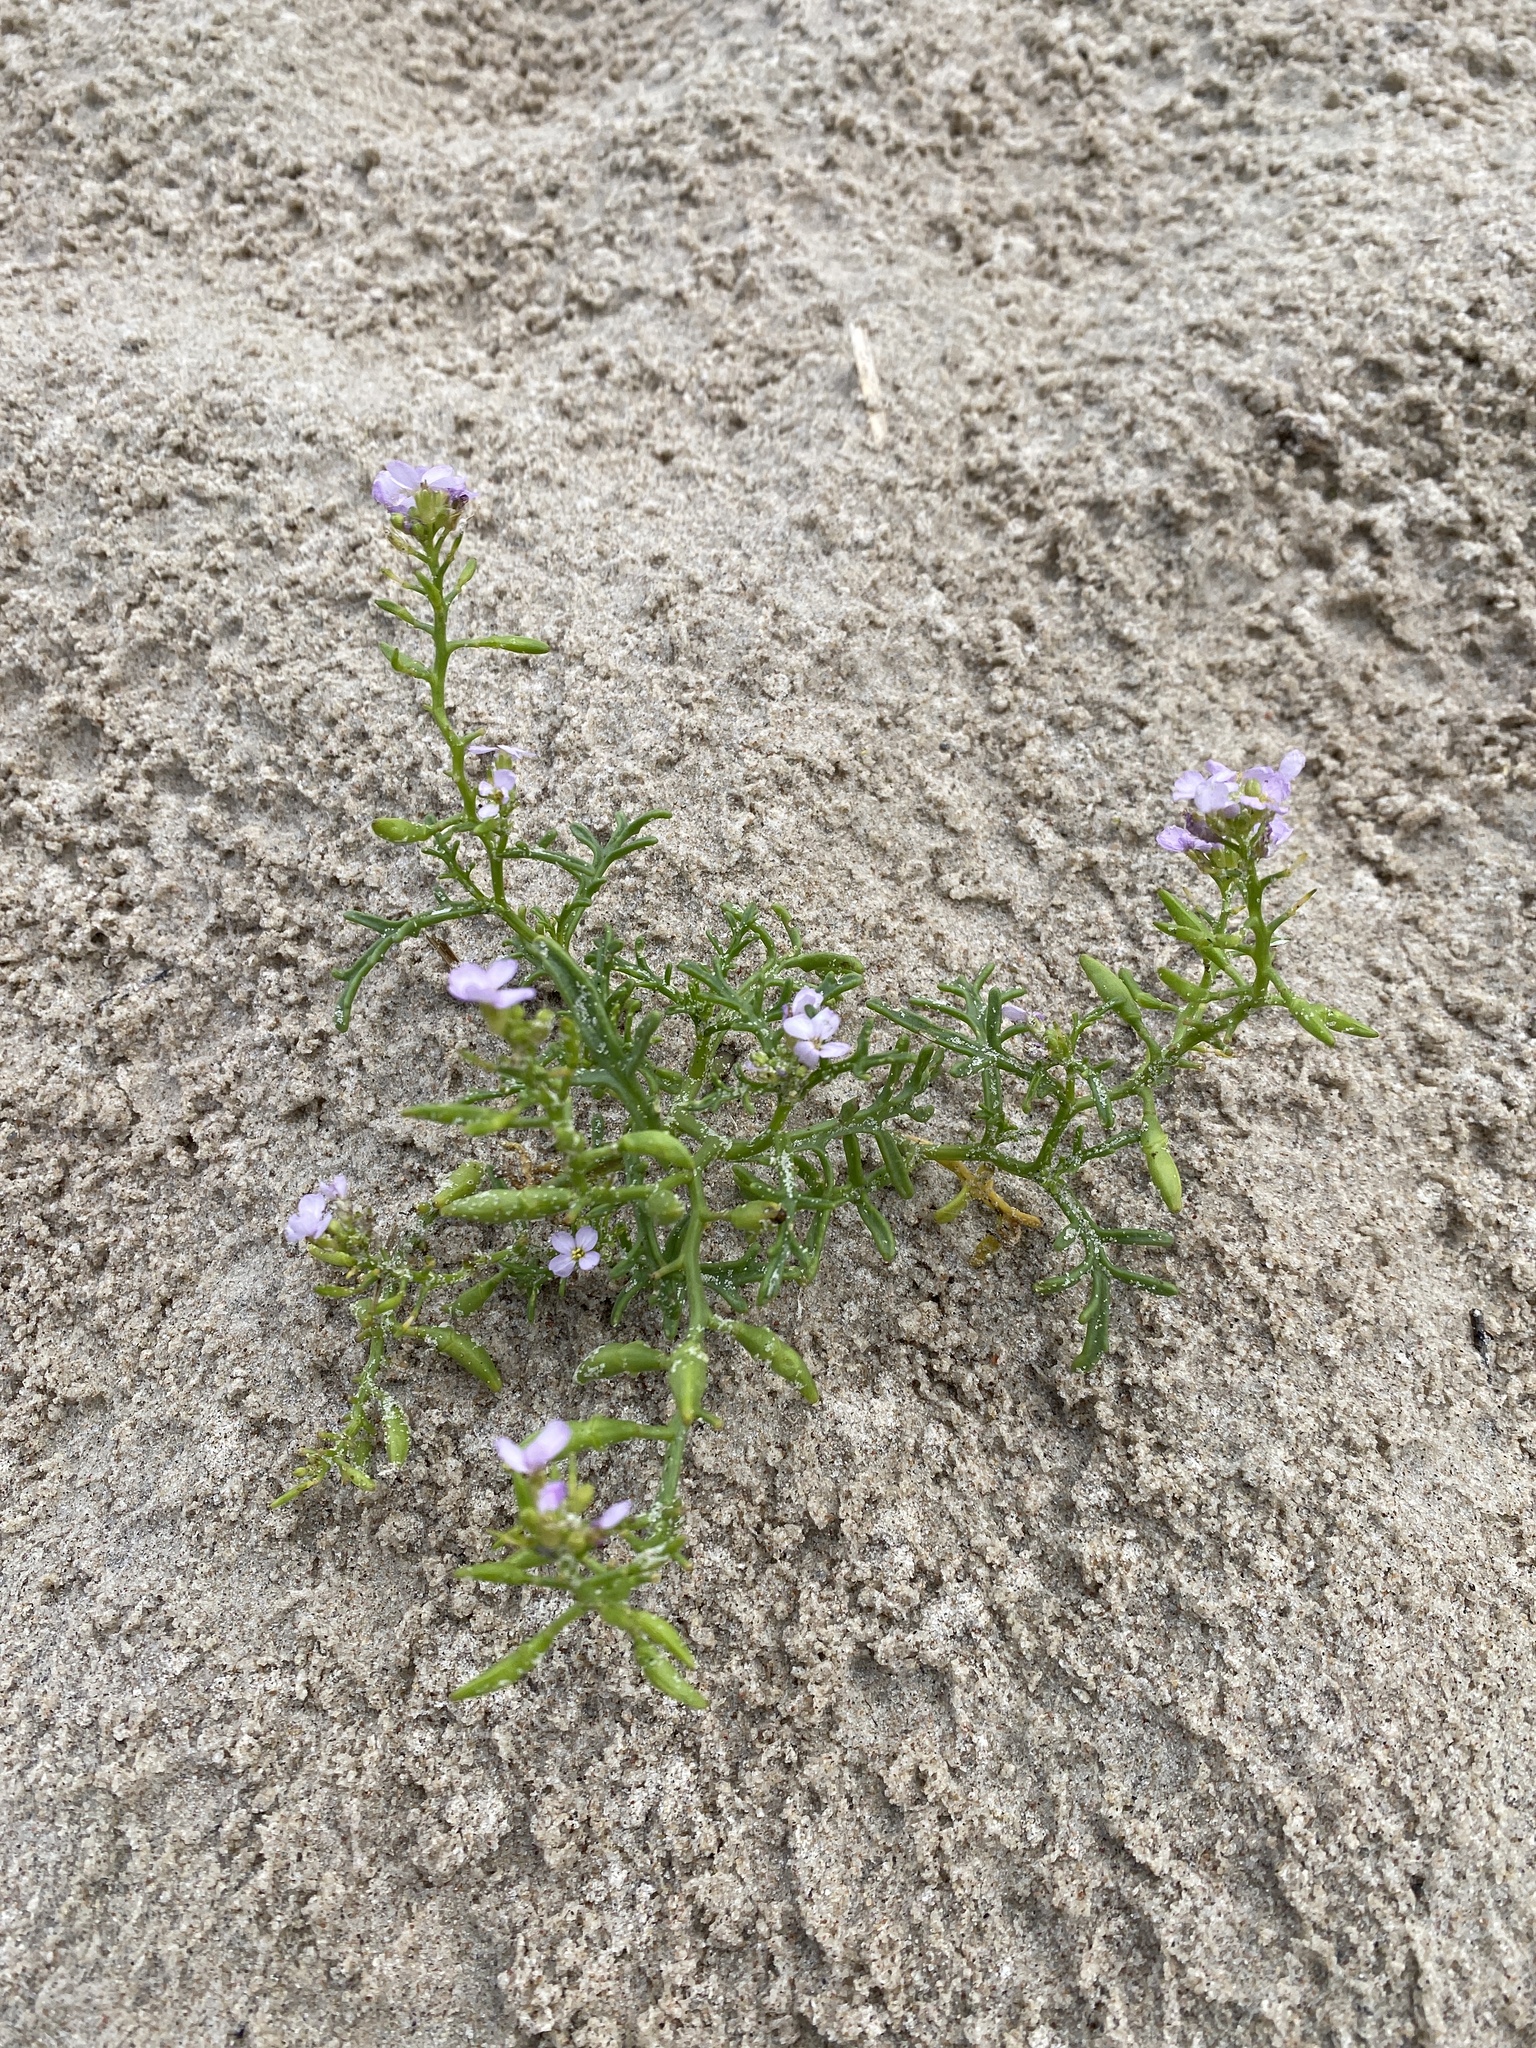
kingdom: Plantae
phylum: Tracheophyta
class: Magnoliopsida
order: Brassicales
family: Brassicaceae
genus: Cakile
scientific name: Cakile maritima
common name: Sea rocket
